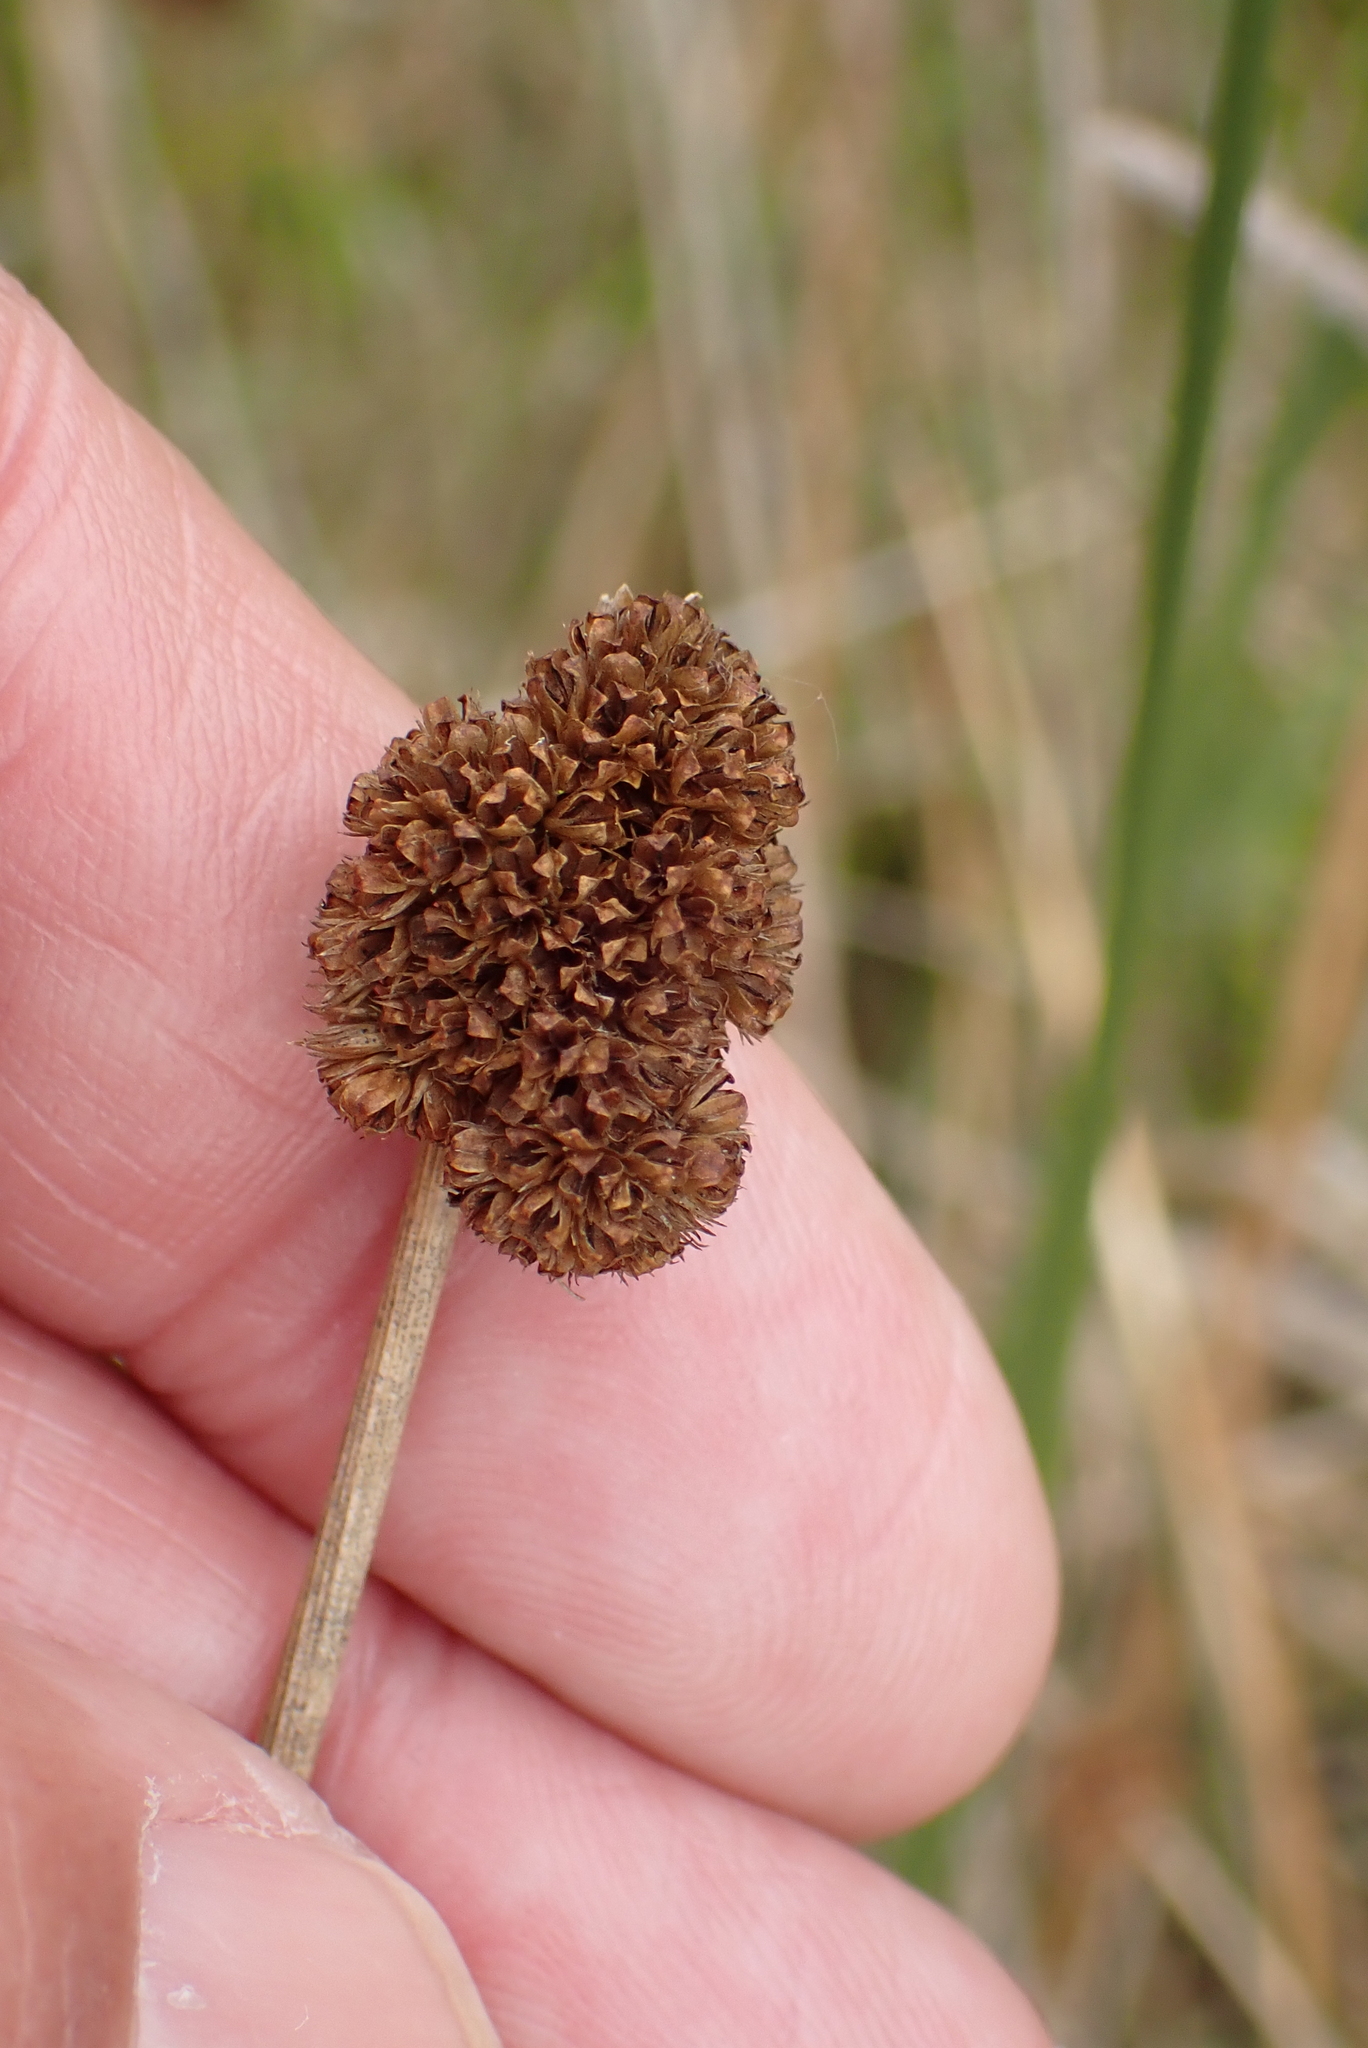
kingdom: Plantae
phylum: Tracheophyta
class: Liliopsida
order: Poales
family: Juncaceae
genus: Juncus
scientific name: Juncus conglomeratus
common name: Compact rush
